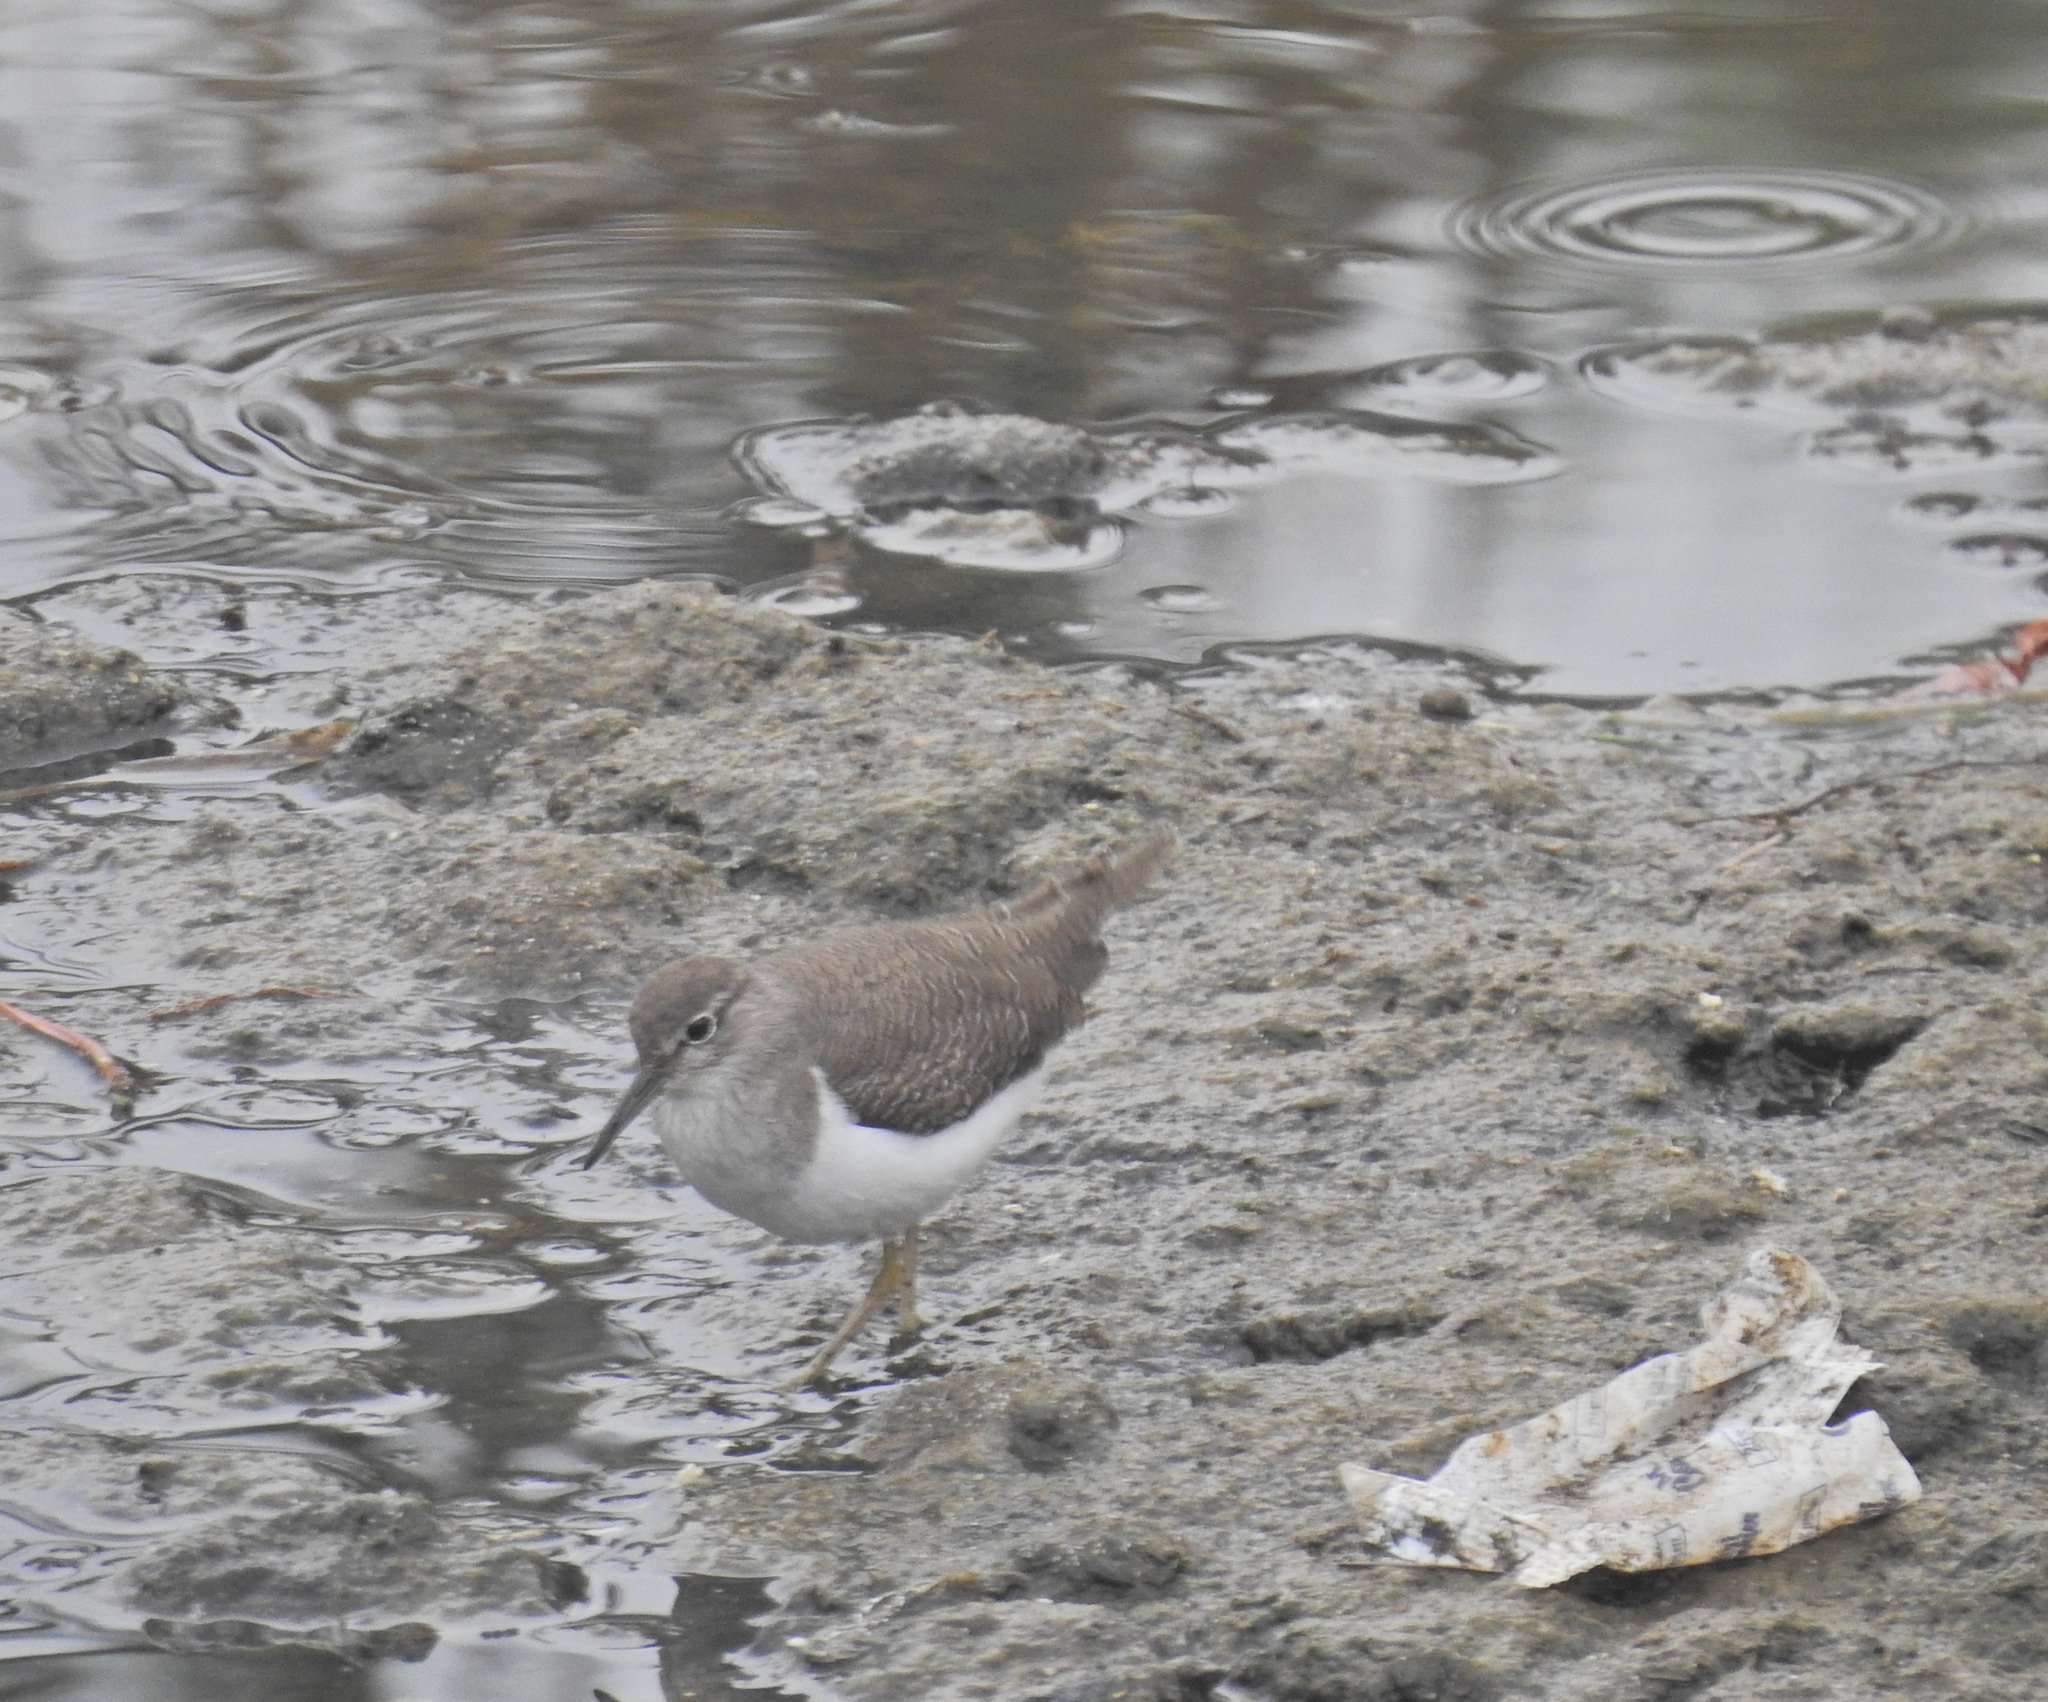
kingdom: Animalia
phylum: Chordata
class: Aves
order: Charadriiformes
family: Scolopacidae
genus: Actitis
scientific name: Actitis hypoleucos
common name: Common sandpiper
